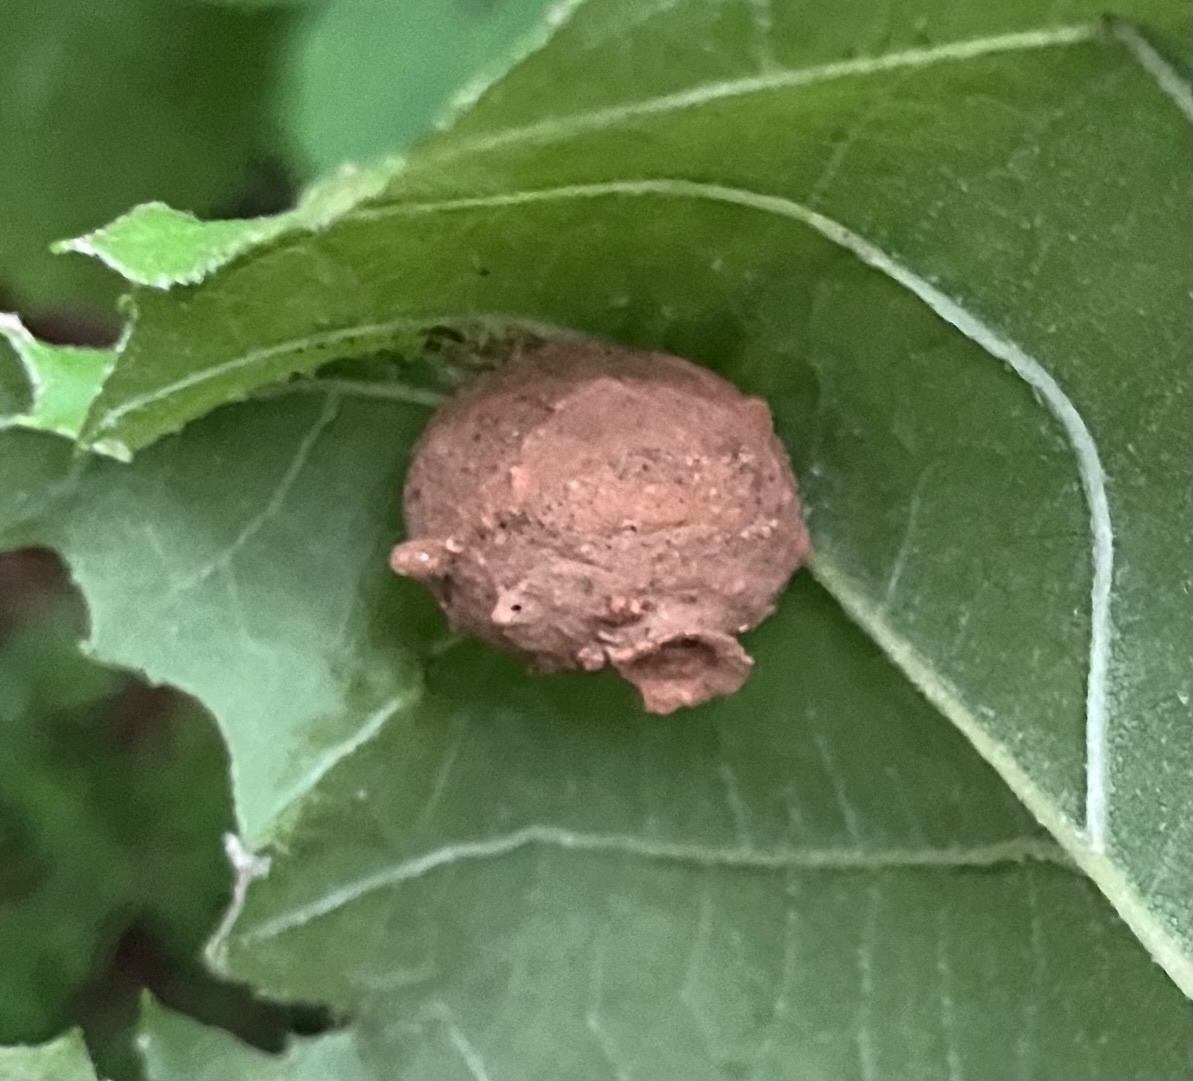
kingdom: Animalia
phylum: Arthropoda
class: Insecta
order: Hymenoptera
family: Vespidae
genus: Eumenes
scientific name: Eumenes fraternus
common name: Fraternal potter wasp
